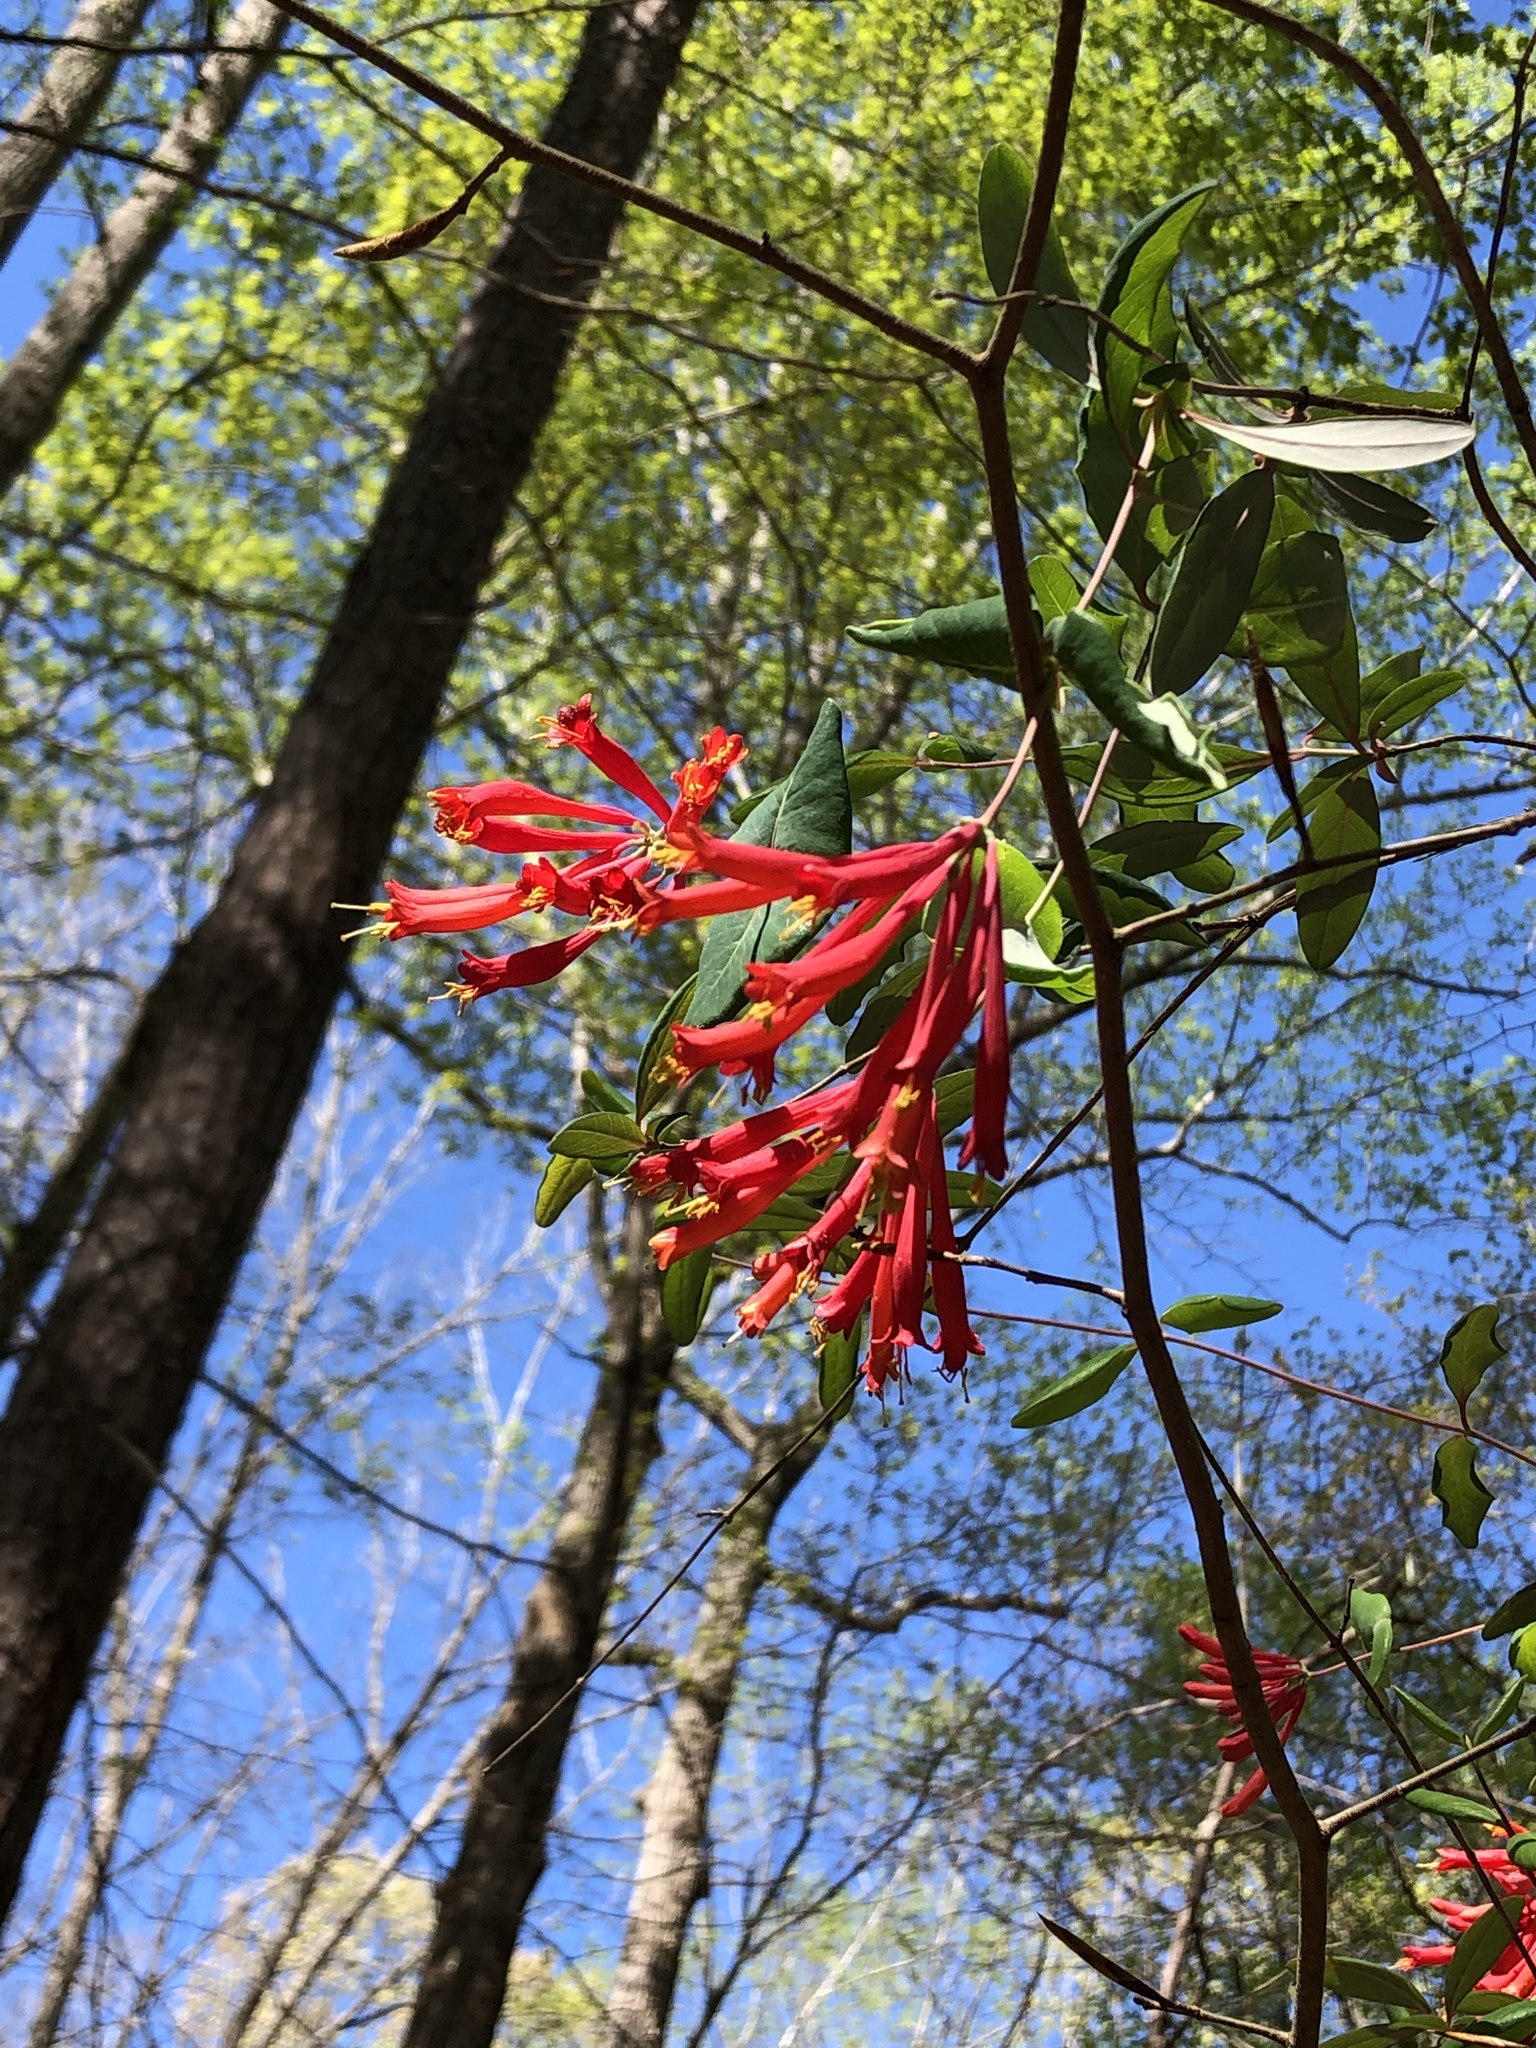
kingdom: Plantae
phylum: Tracheophyta
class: Magnoliopsida
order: Dipsacales
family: Caprifoliaceae
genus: Lonicera
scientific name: Lonicera sempervirens
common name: Coral honeysuckle
